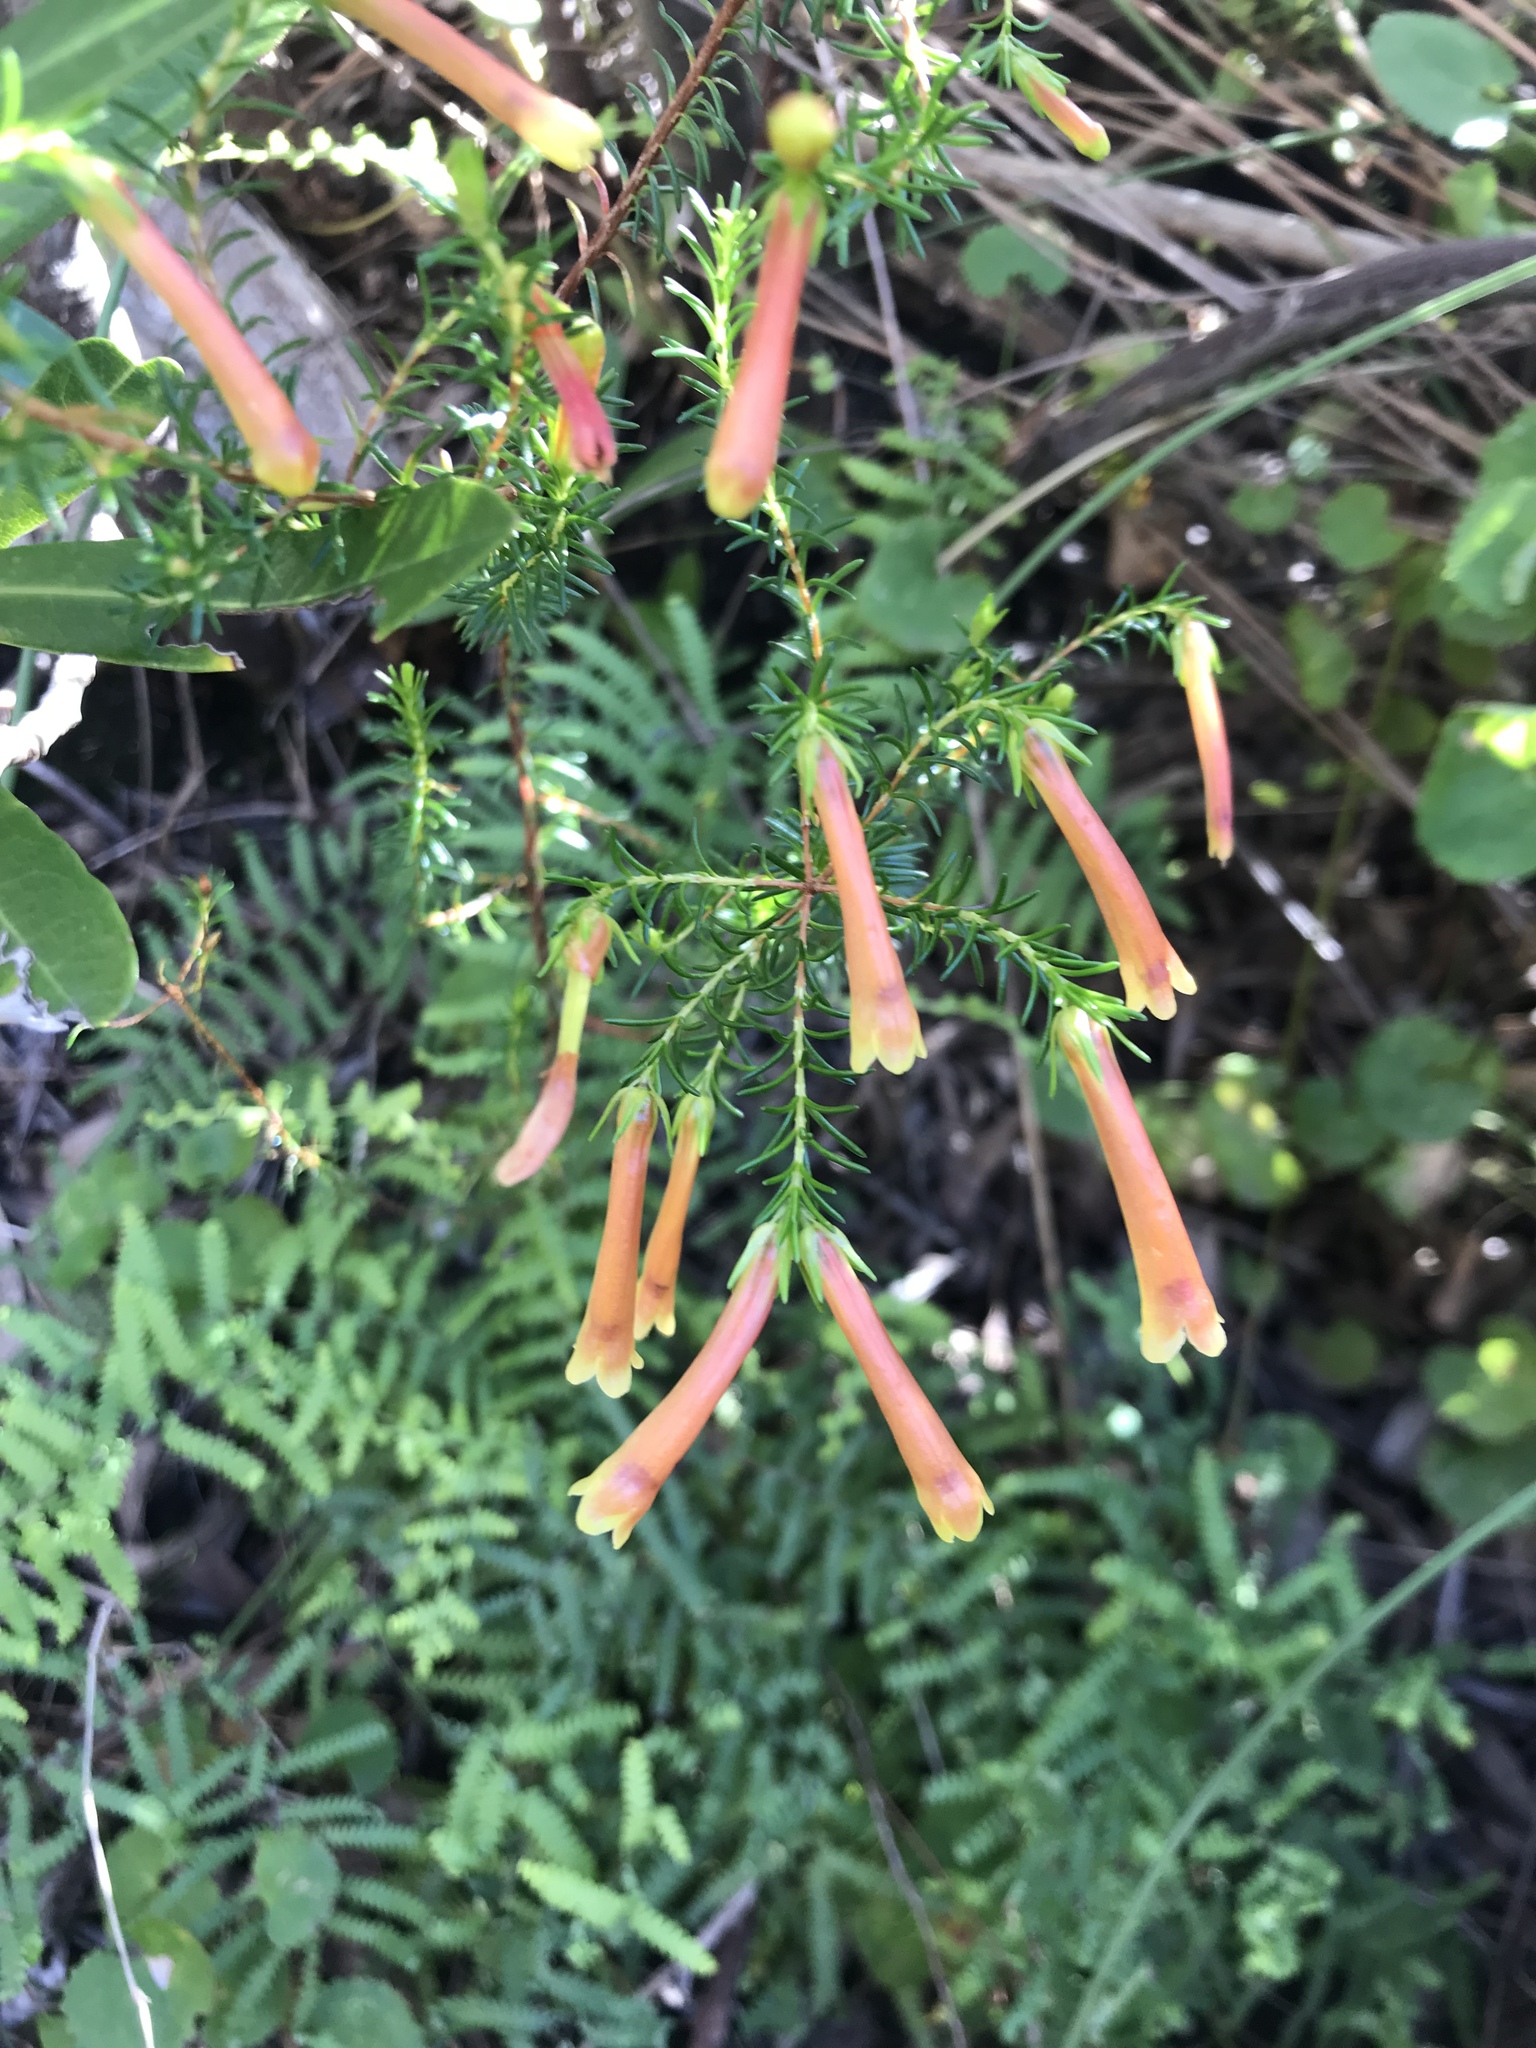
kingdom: Plantae
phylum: Tracheophyta
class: Magnoliopsida
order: Ericales
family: Ericaceae
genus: Erica
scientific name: Erica curviflora
